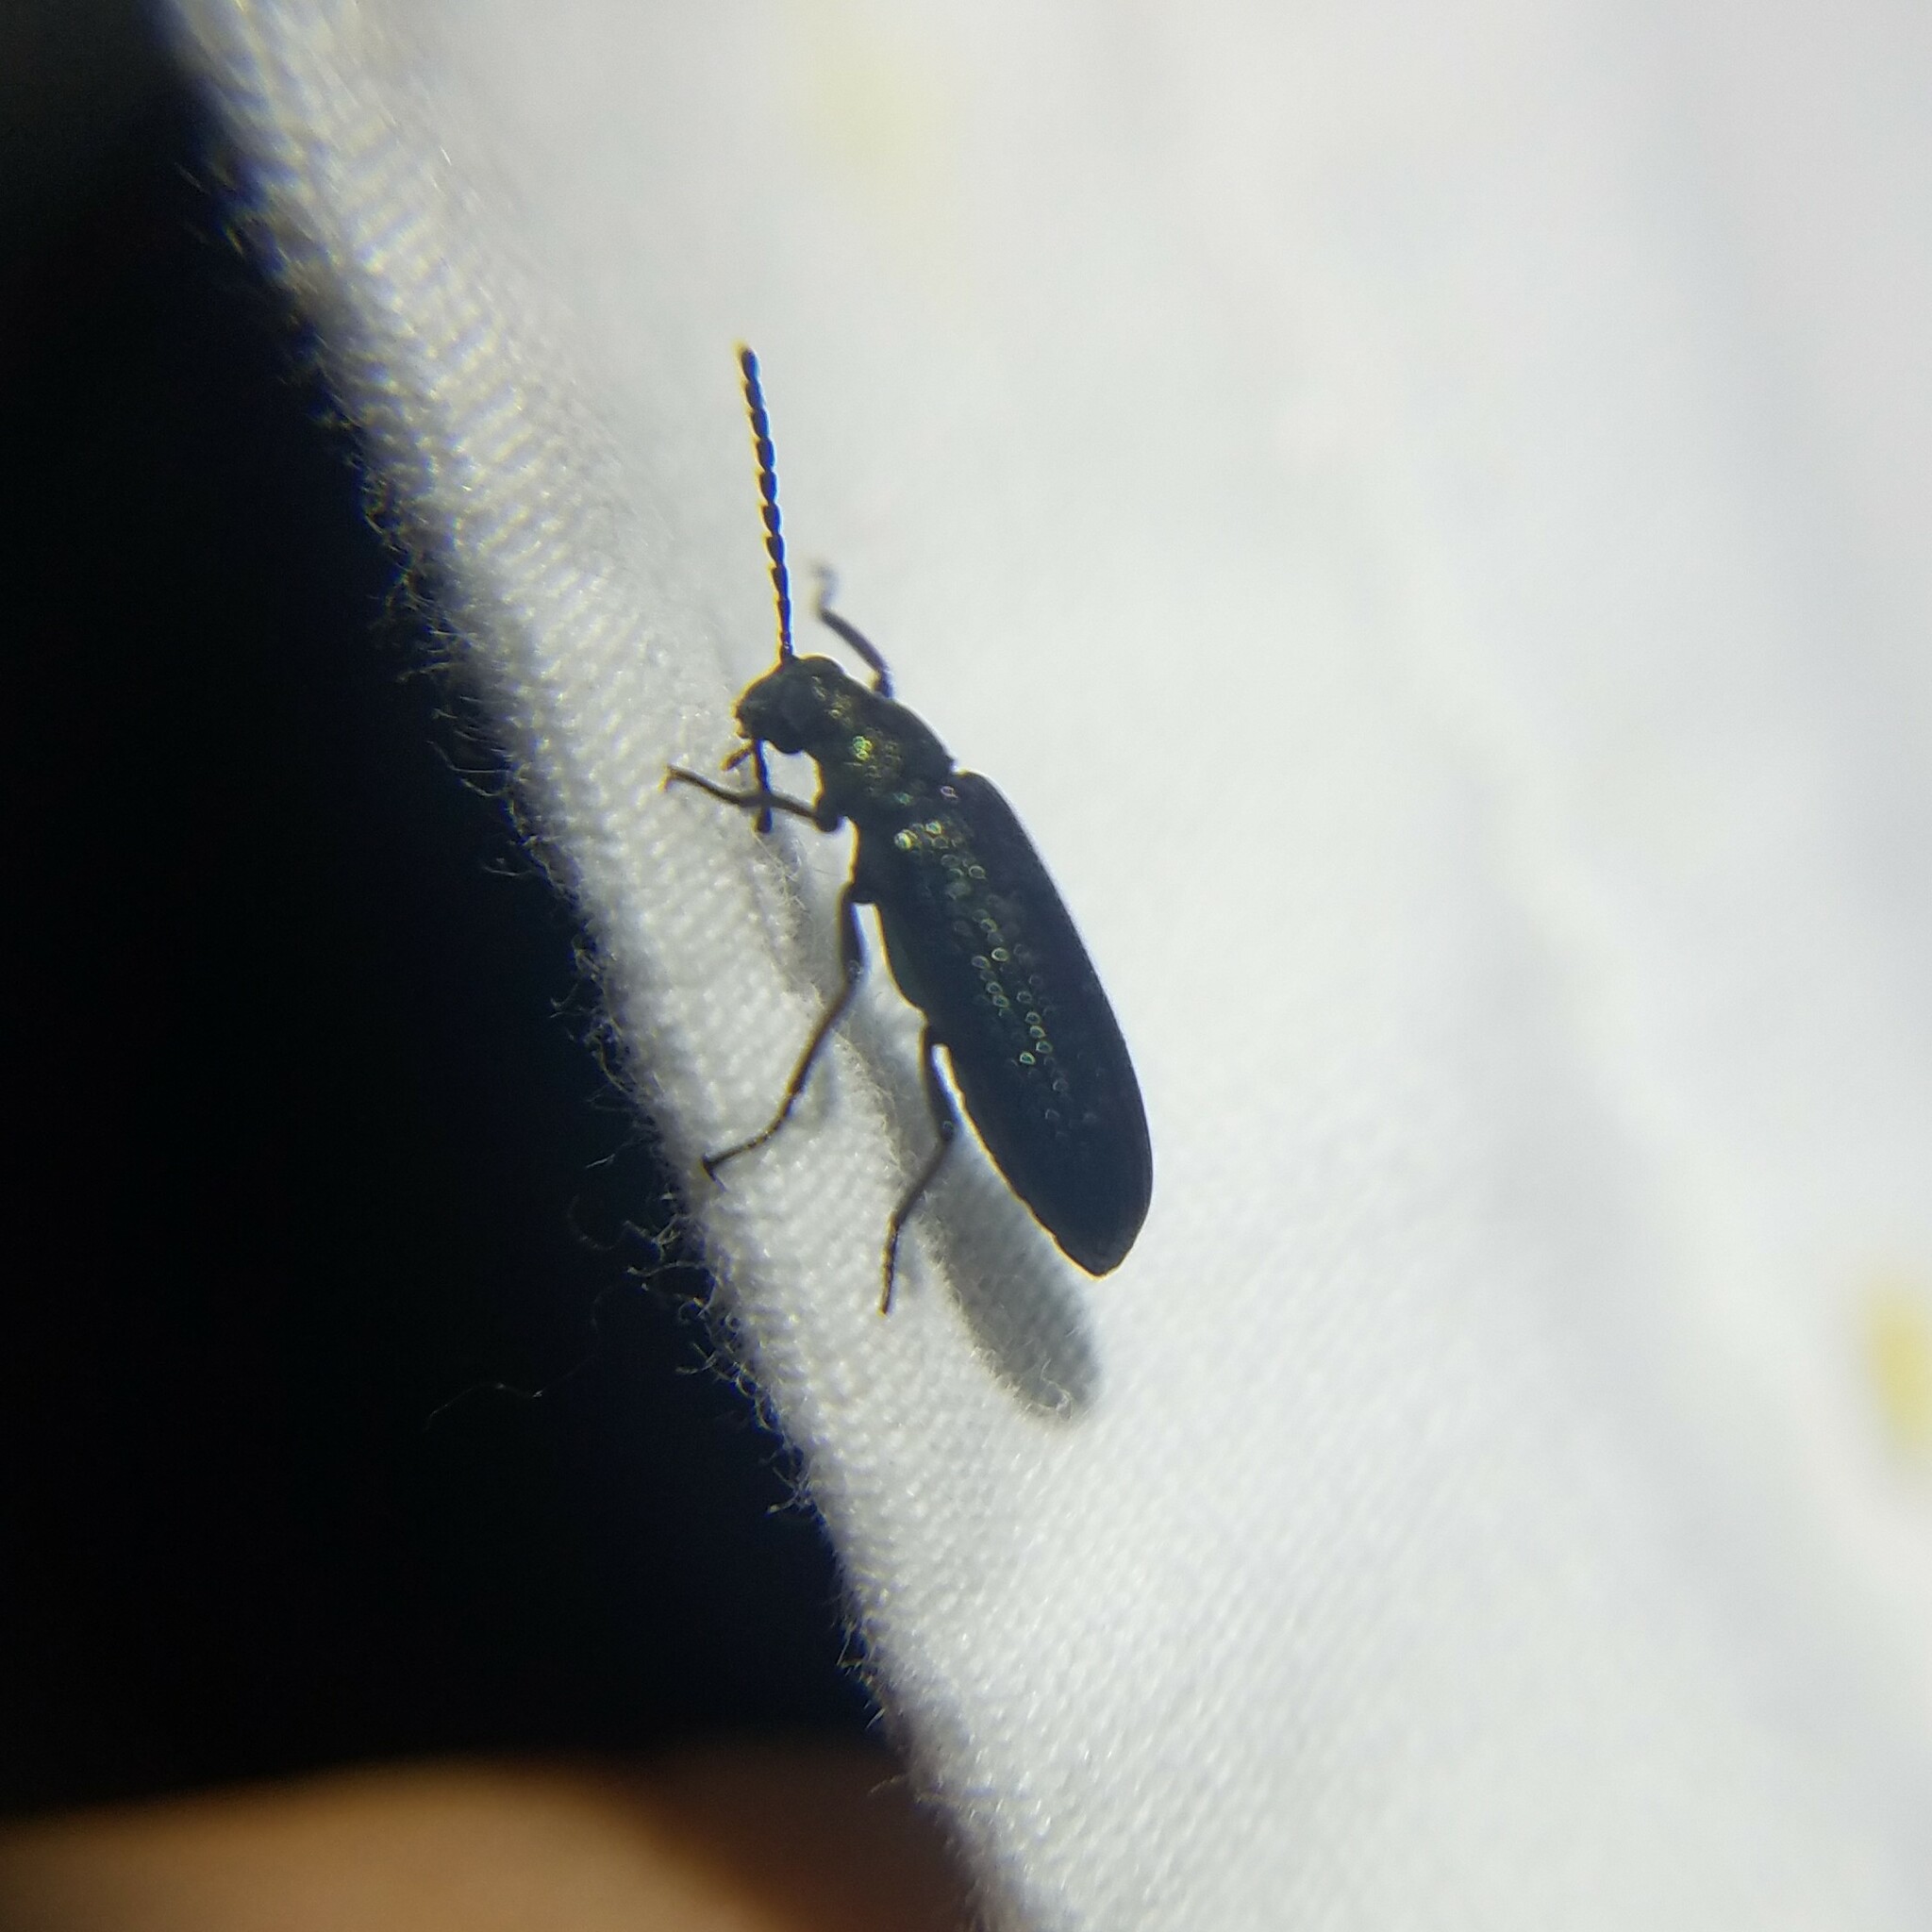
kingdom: Animalia
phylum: Arthropoda
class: Insecta
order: Coleoptera
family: Tenebrionidae
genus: Strongylium
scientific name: Strongylium
